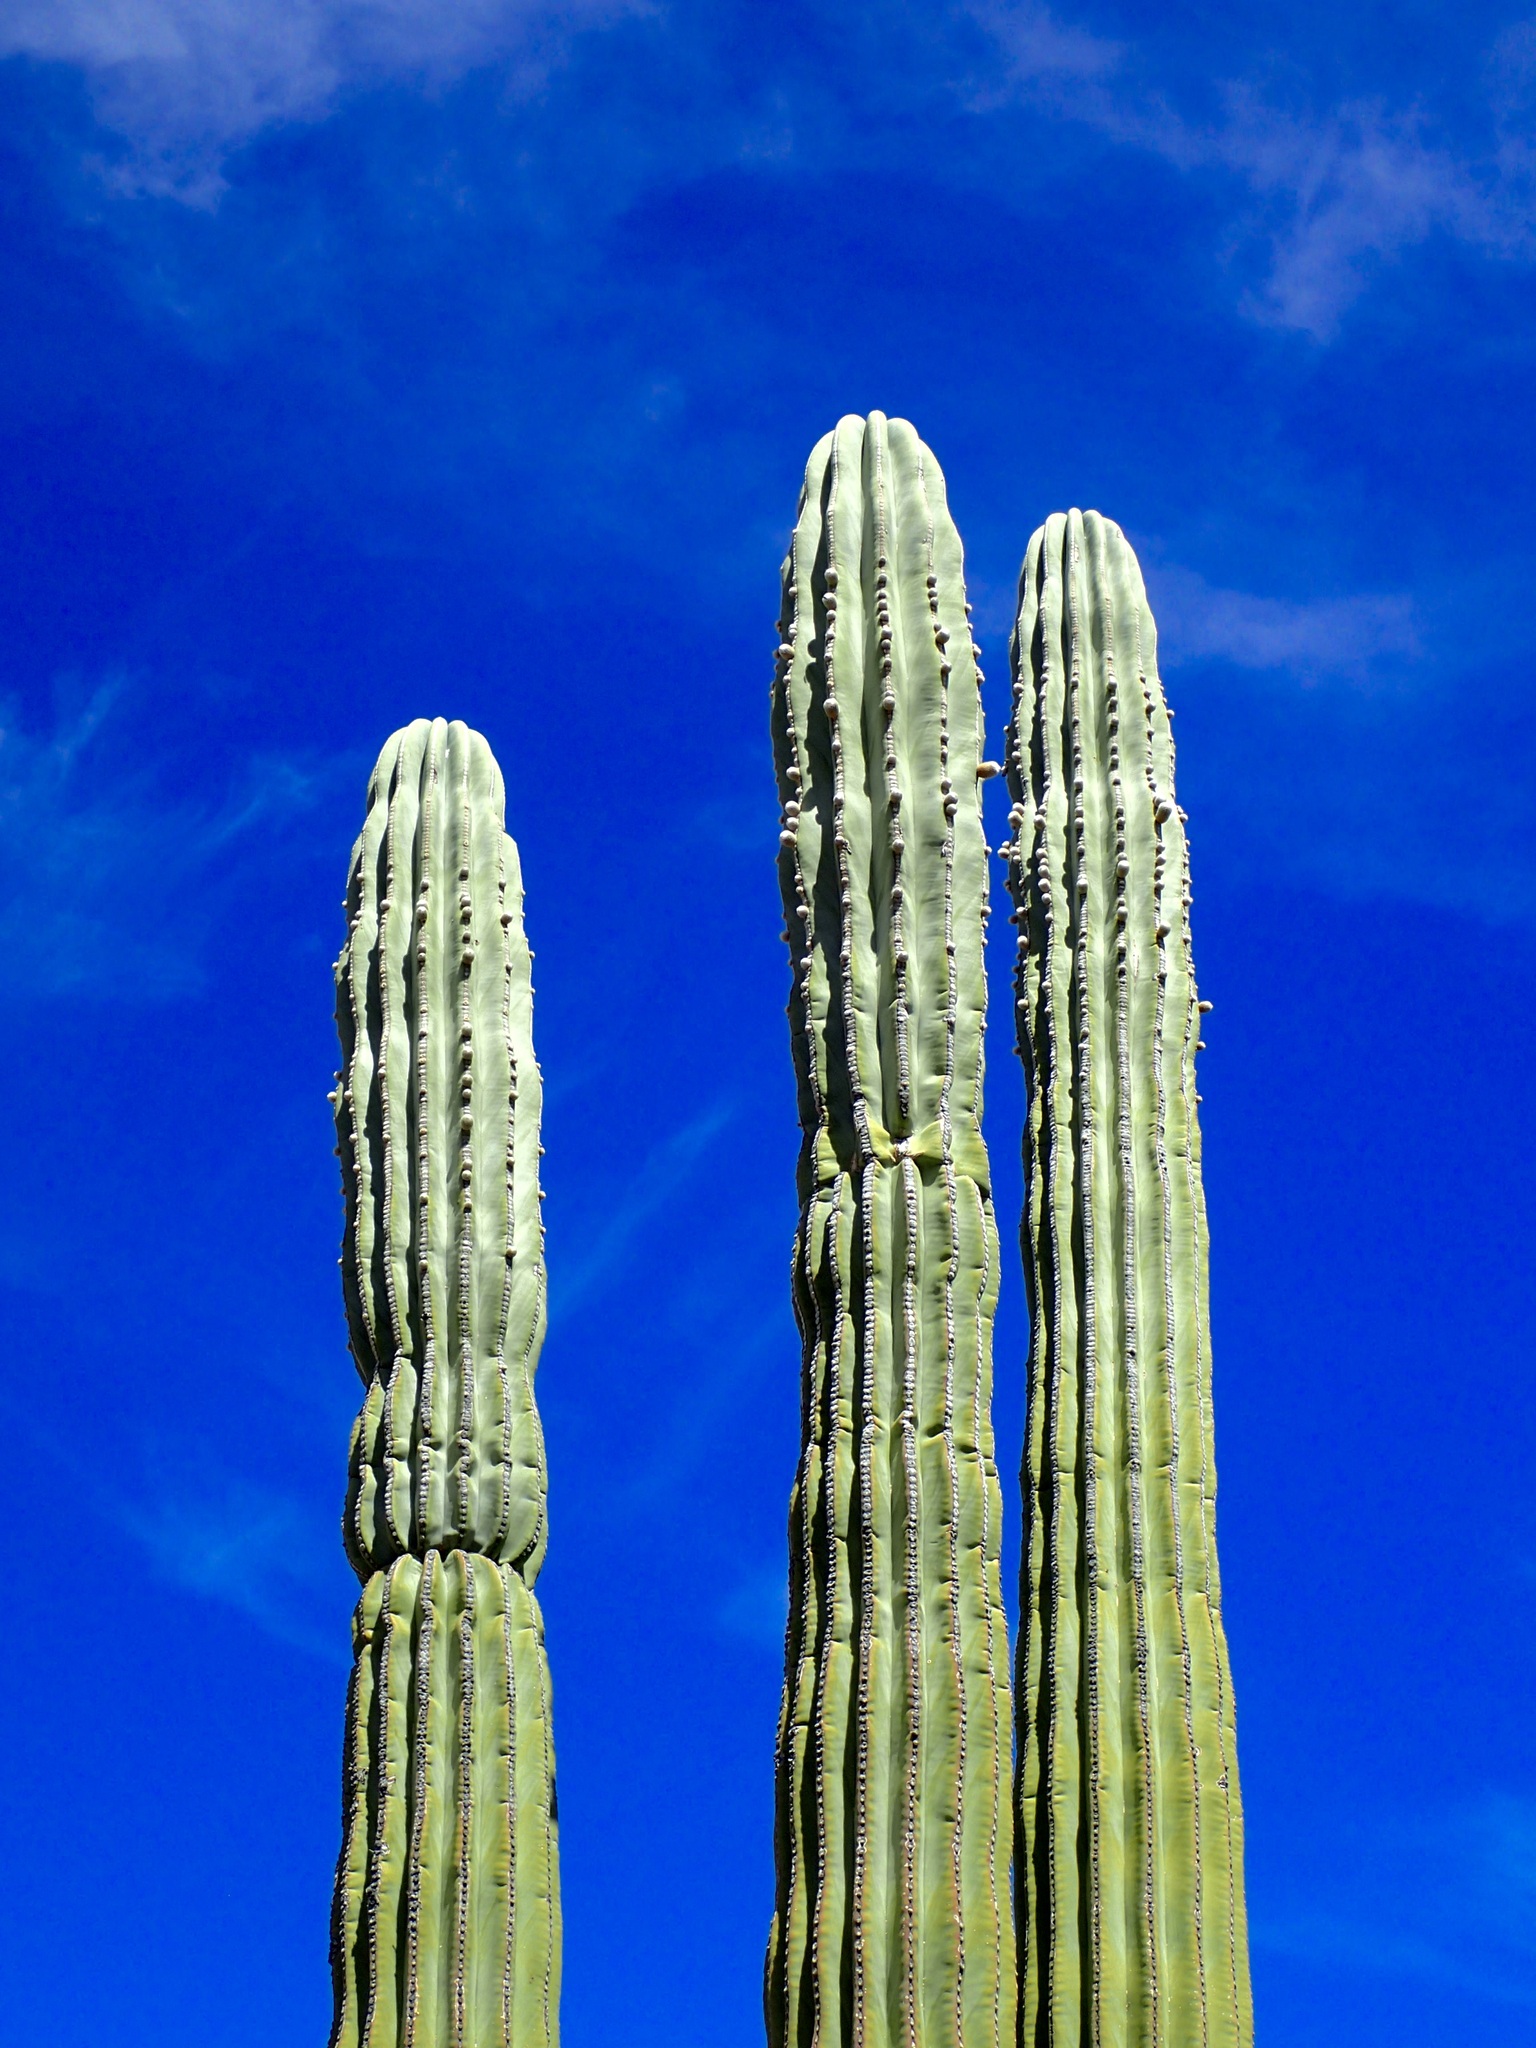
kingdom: Plantae
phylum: Tracheophyta
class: Magnoliopsida
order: Caryophyllales
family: Cactaceae
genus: Pachycereus
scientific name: Pachycereus pringlei
